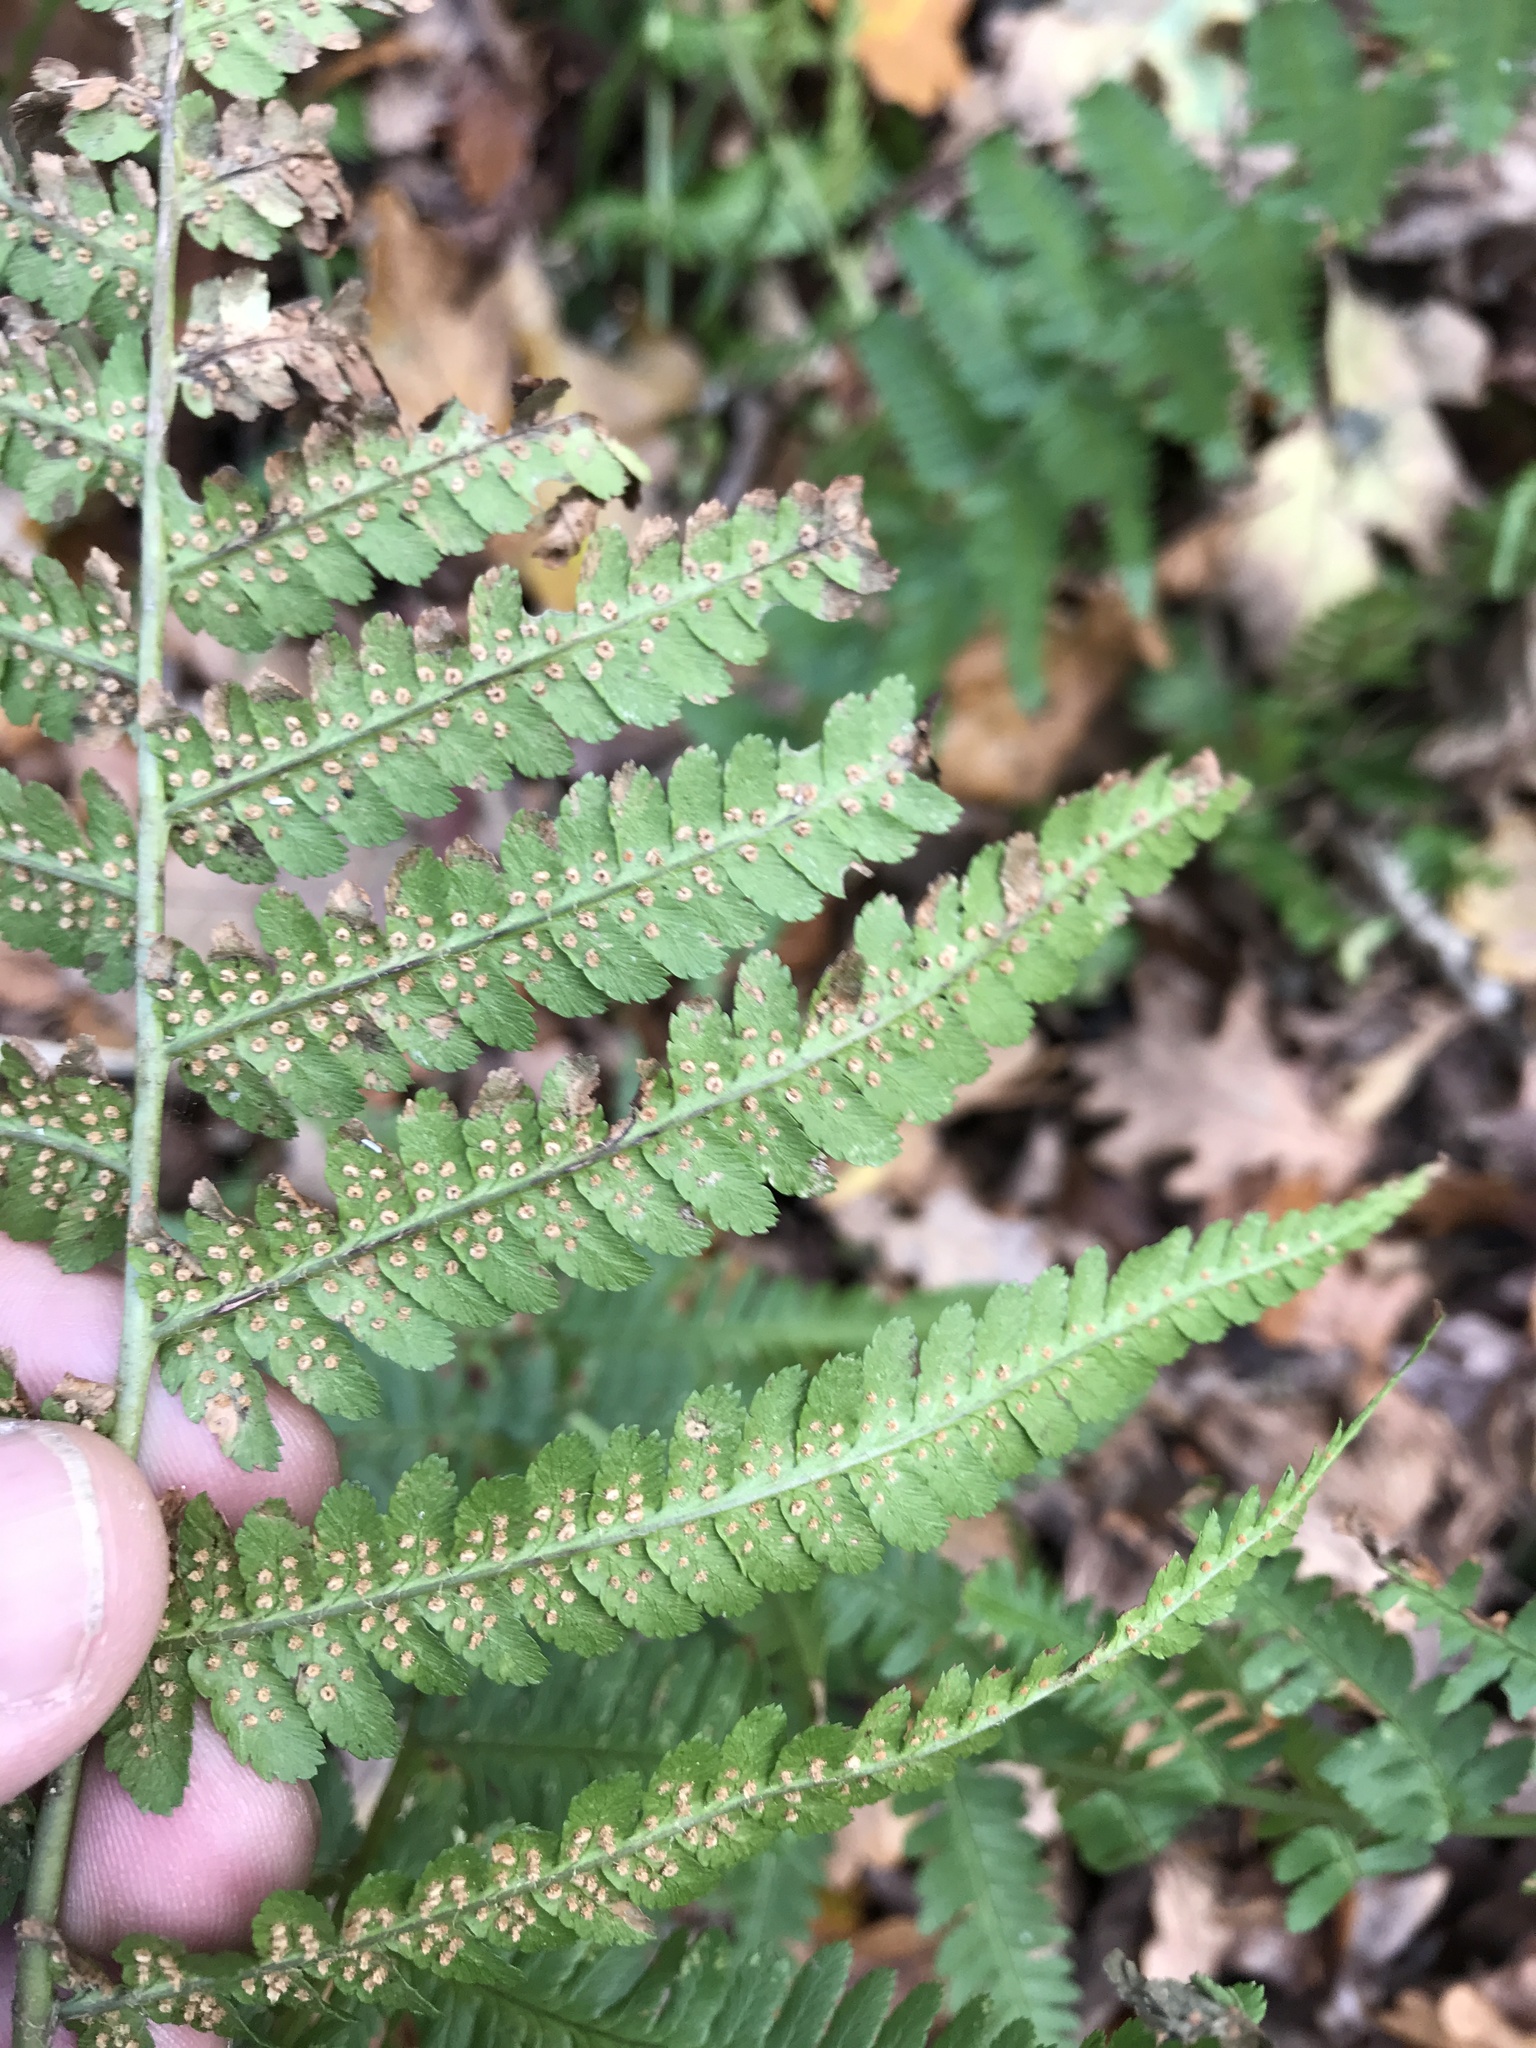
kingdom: Plantae
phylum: Tracheophyta
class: Polypodiopsida
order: Polypodiales
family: Dryopteridaceae
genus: Dryopteris
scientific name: Dryopteris filix-mas
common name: Male fern
